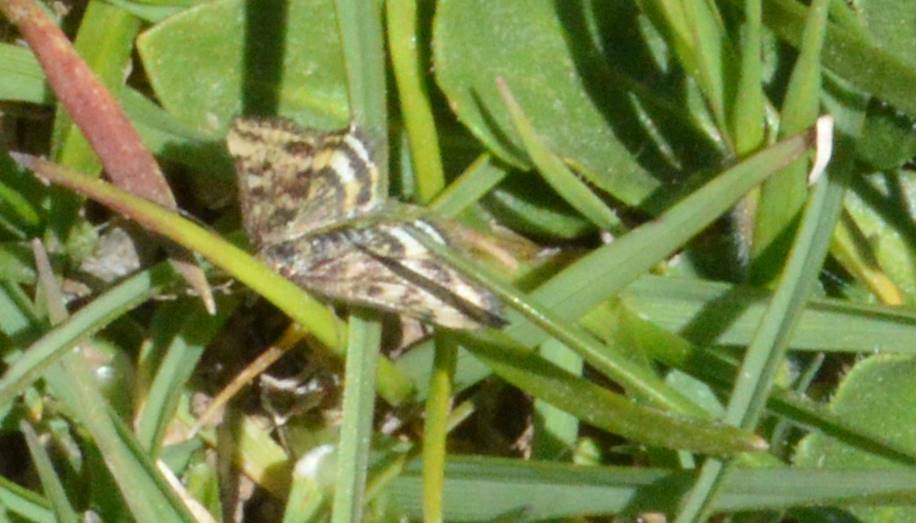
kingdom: Animalia
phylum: Arthropoda
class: Insecta
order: Lepidoptera
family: Crambidae
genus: Pyrausta
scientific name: Pyrausta despicata
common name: Straw-barred pearl
